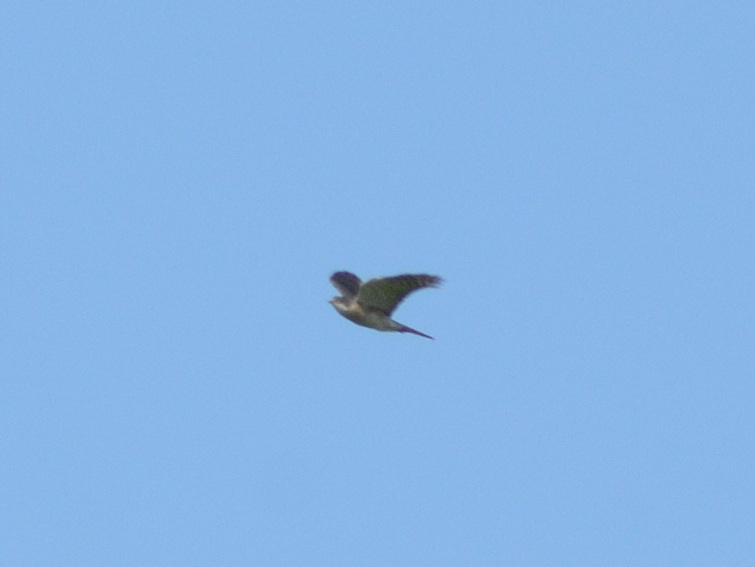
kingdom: Animalia
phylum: Chordata
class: Aves
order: Accipitriformes
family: Accipitridae
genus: Accipiter
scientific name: Accipiter nisus
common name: Eurasian sparrowhawk
